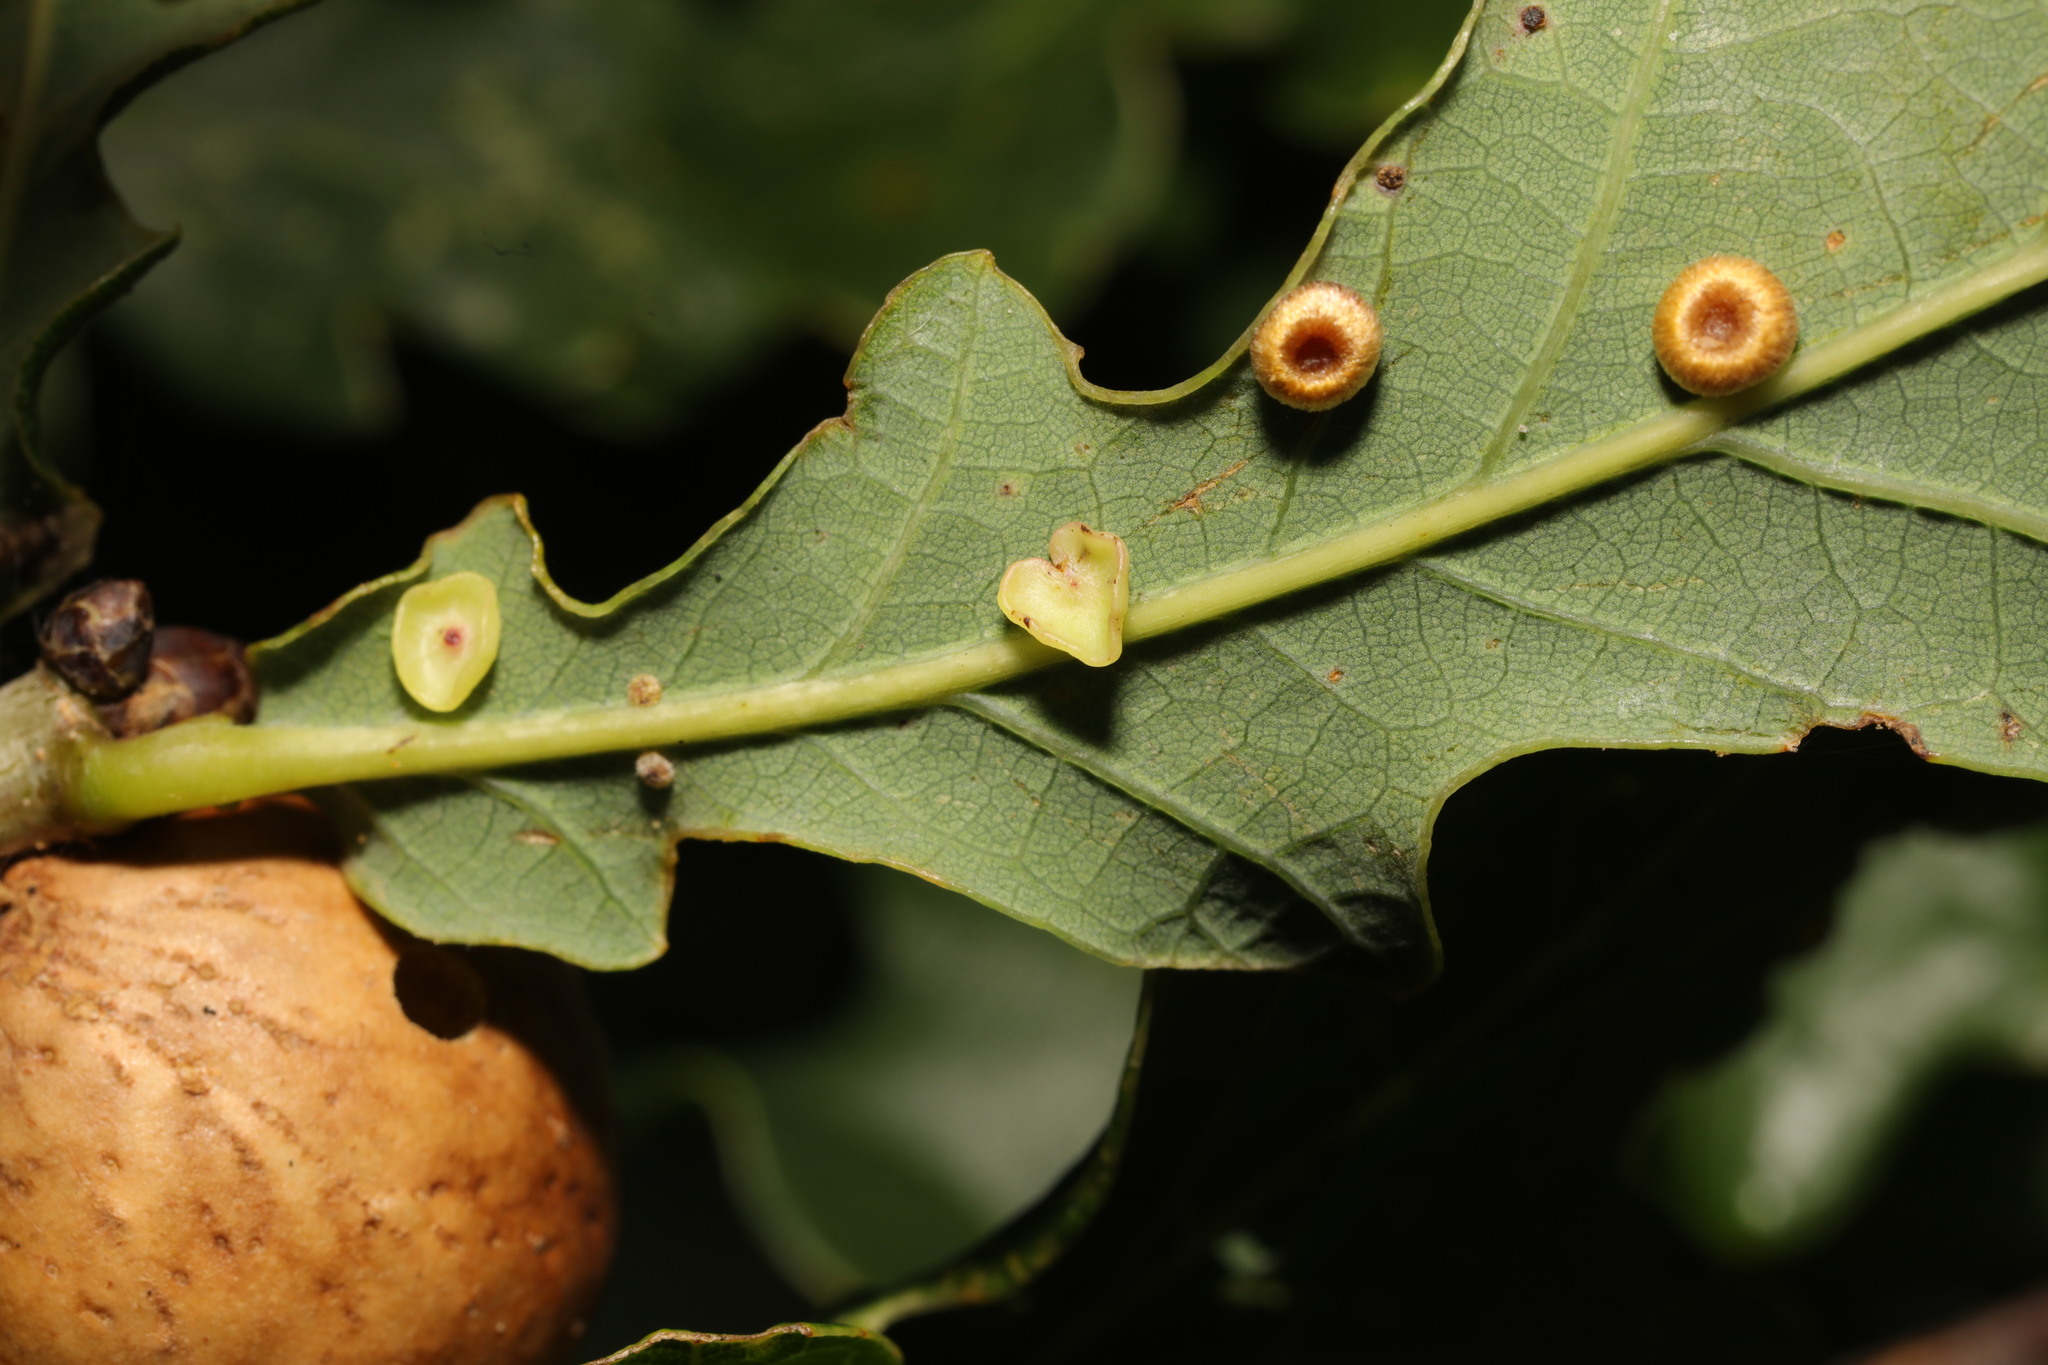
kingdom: Animalia
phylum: Arthropoda
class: Insecta
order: Hymenoptera
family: Cynipidae
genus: Neuroterus
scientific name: Neuroterus albipes
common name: Smooth spangle gall
